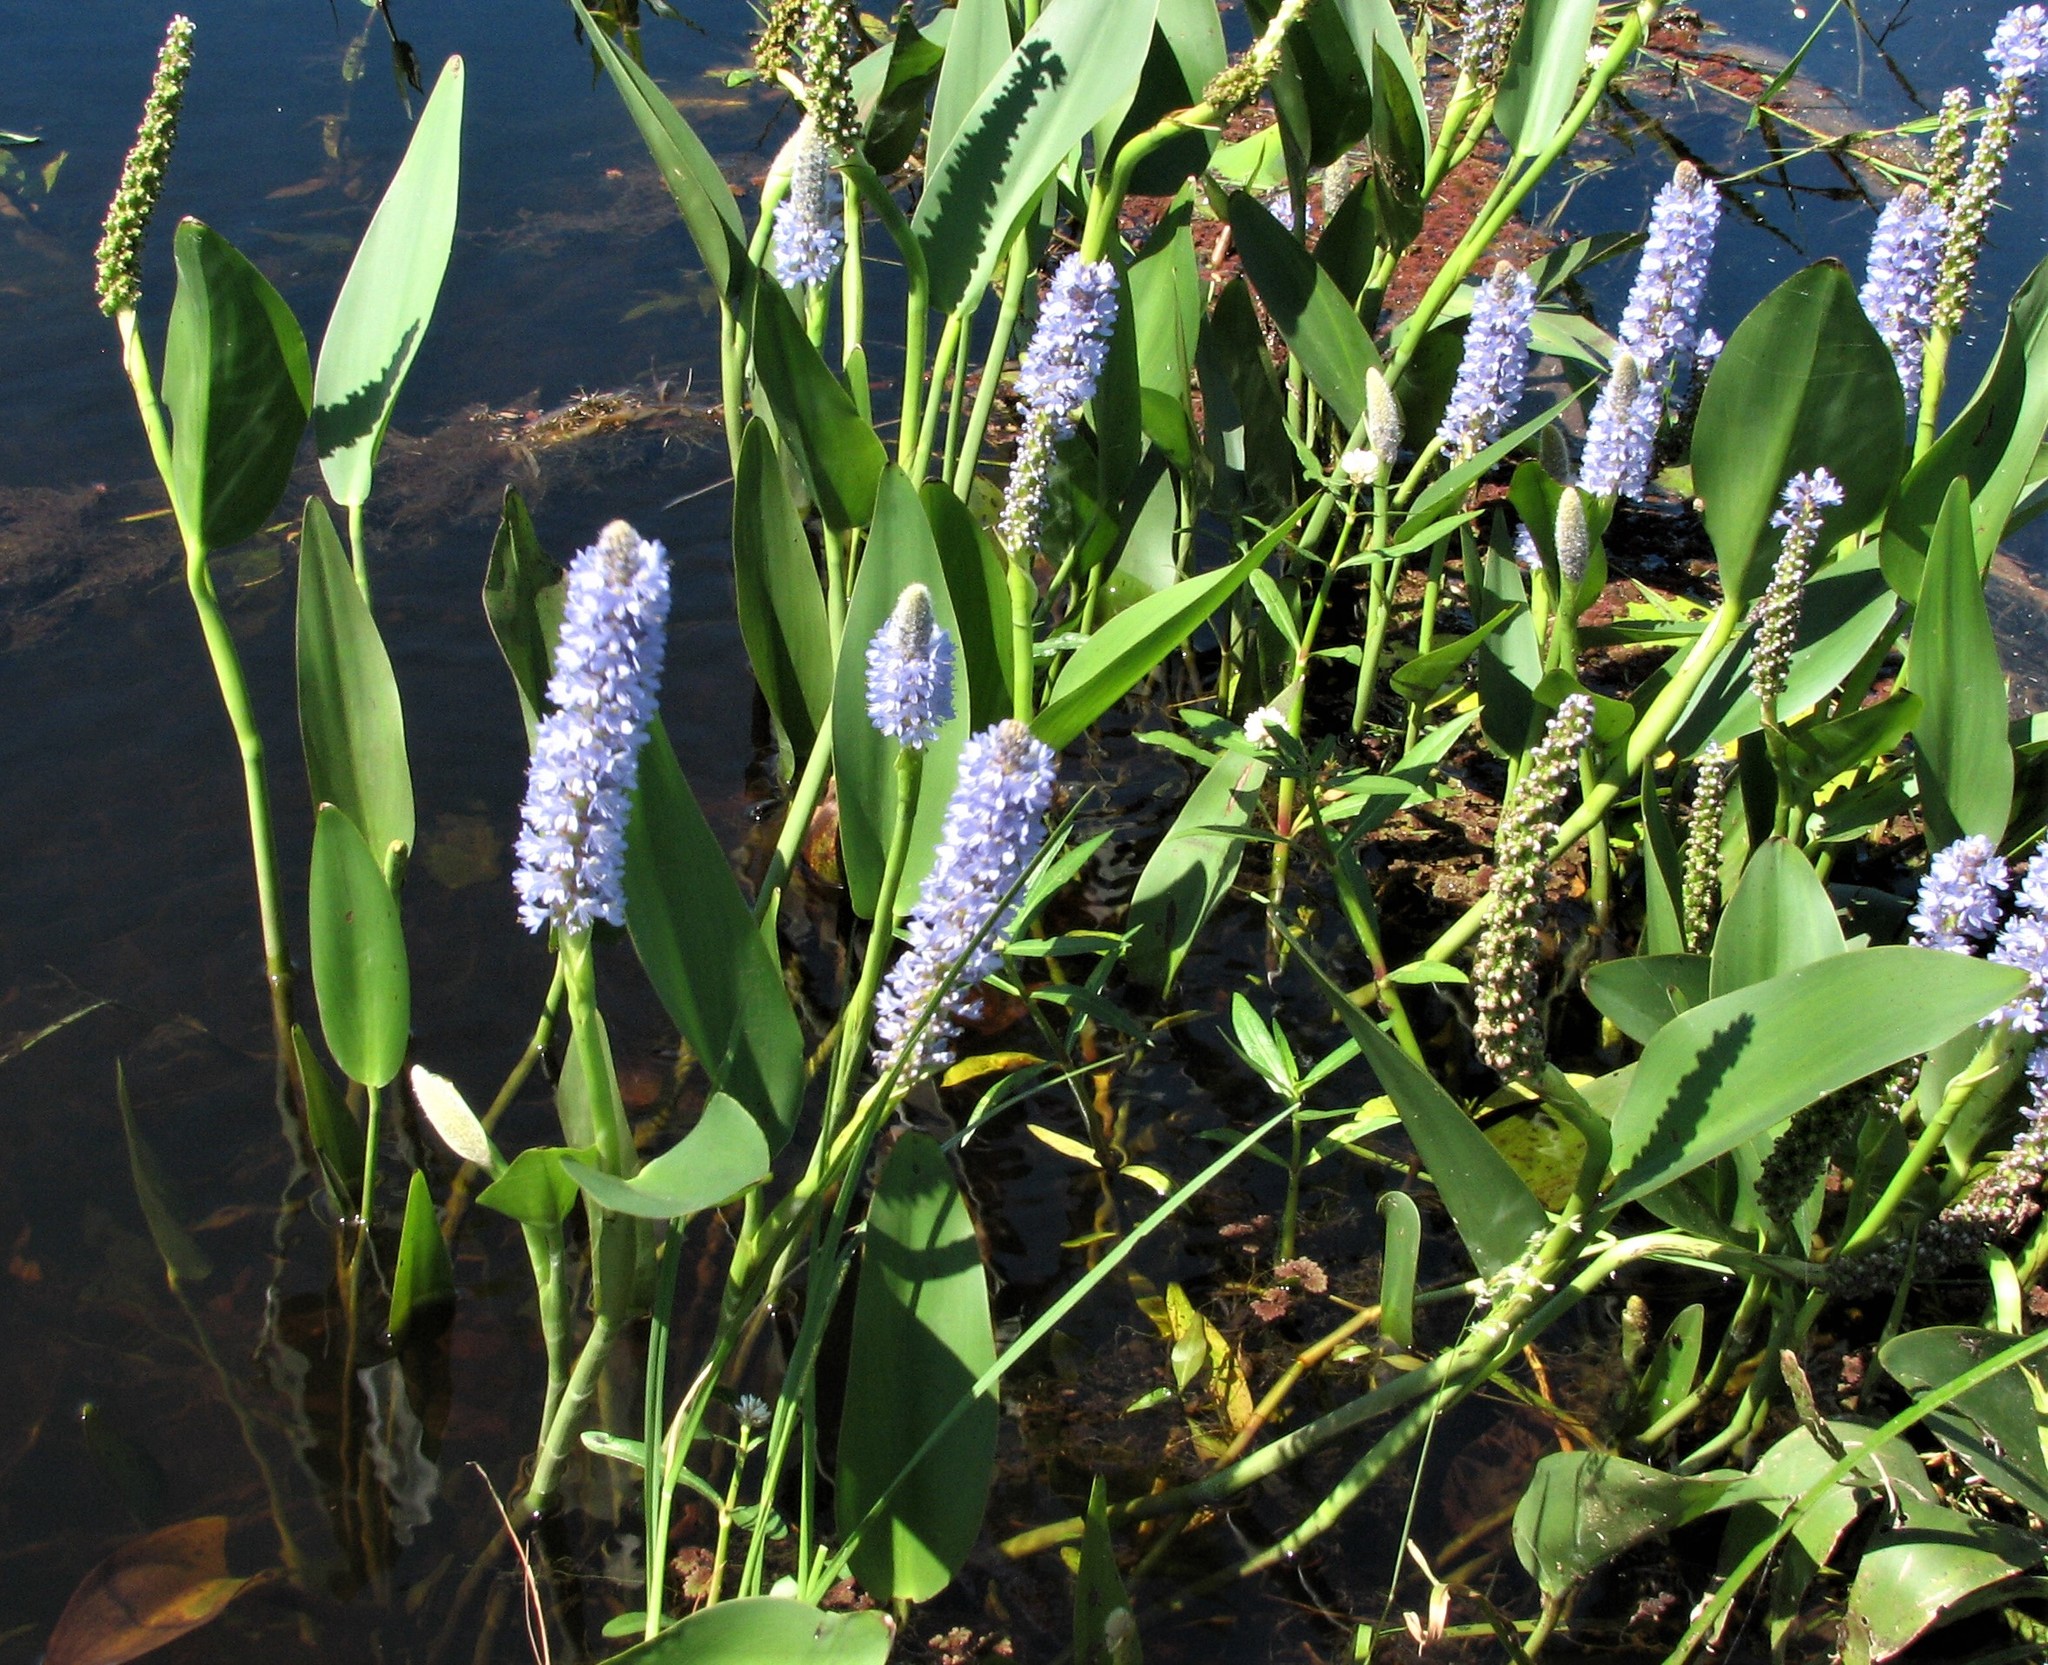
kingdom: Plantae
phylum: Tracheophyta
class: Liliopsida
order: Commelinales
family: Pontederiaceae
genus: Pontederia
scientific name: Pontederia cordata
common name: Pickerelweed
